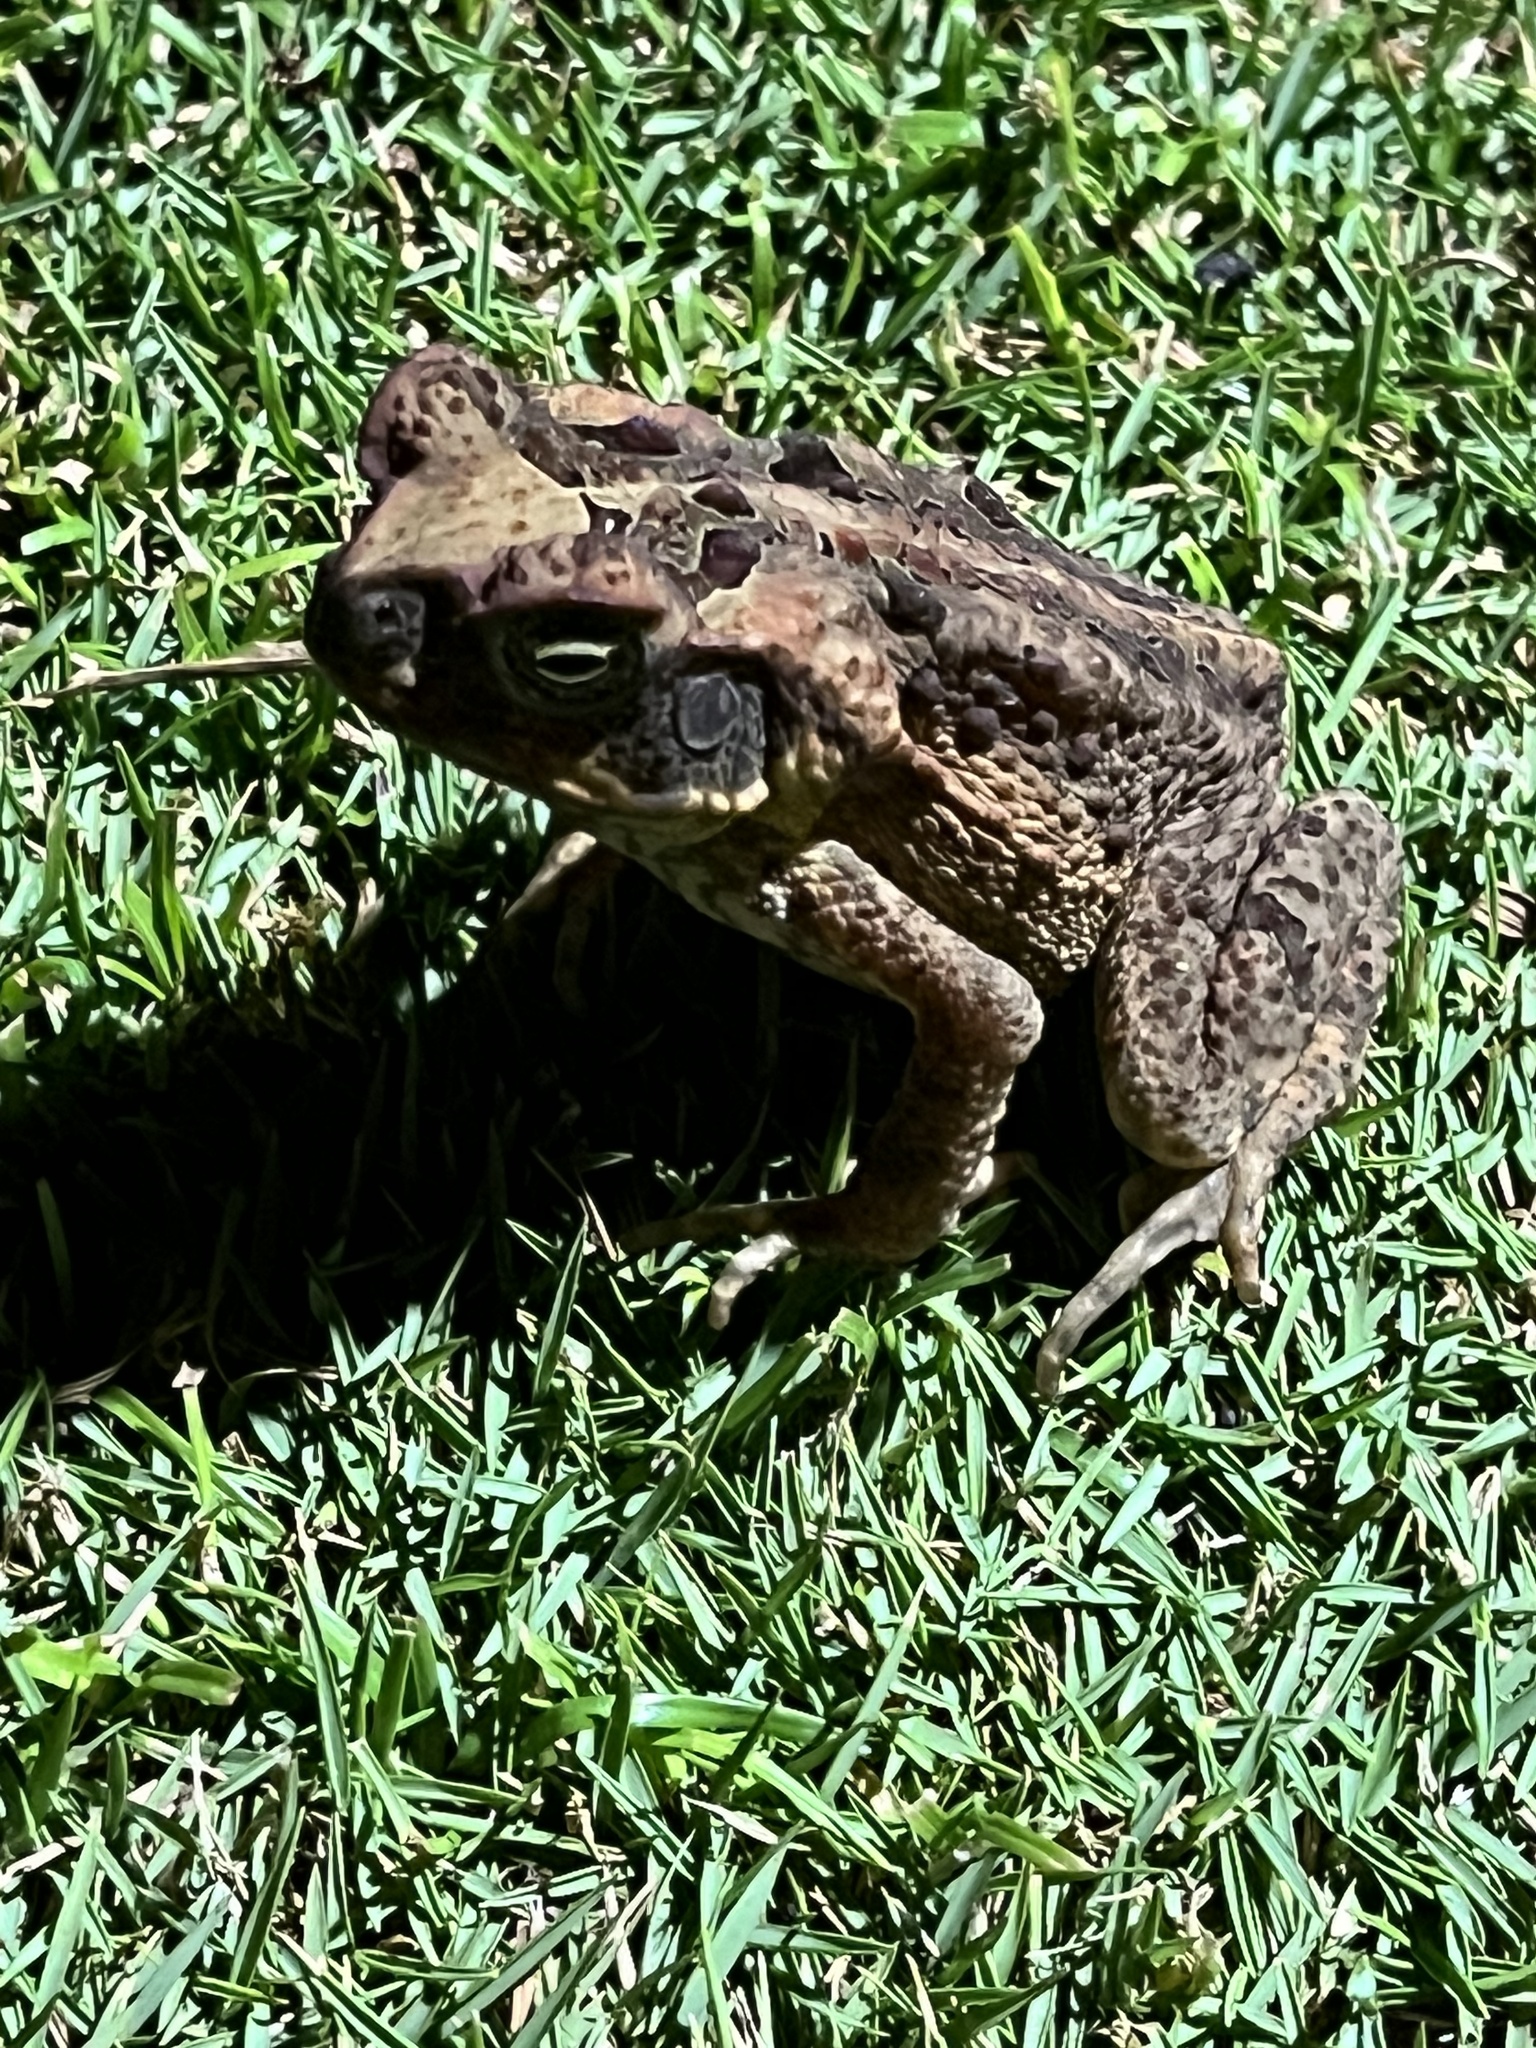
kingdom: Animalia
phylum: Chordata
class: Amphibia
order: Anura
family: Bufonidae
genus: Rhinella
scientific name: Rhinella marina
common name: Cane toad
